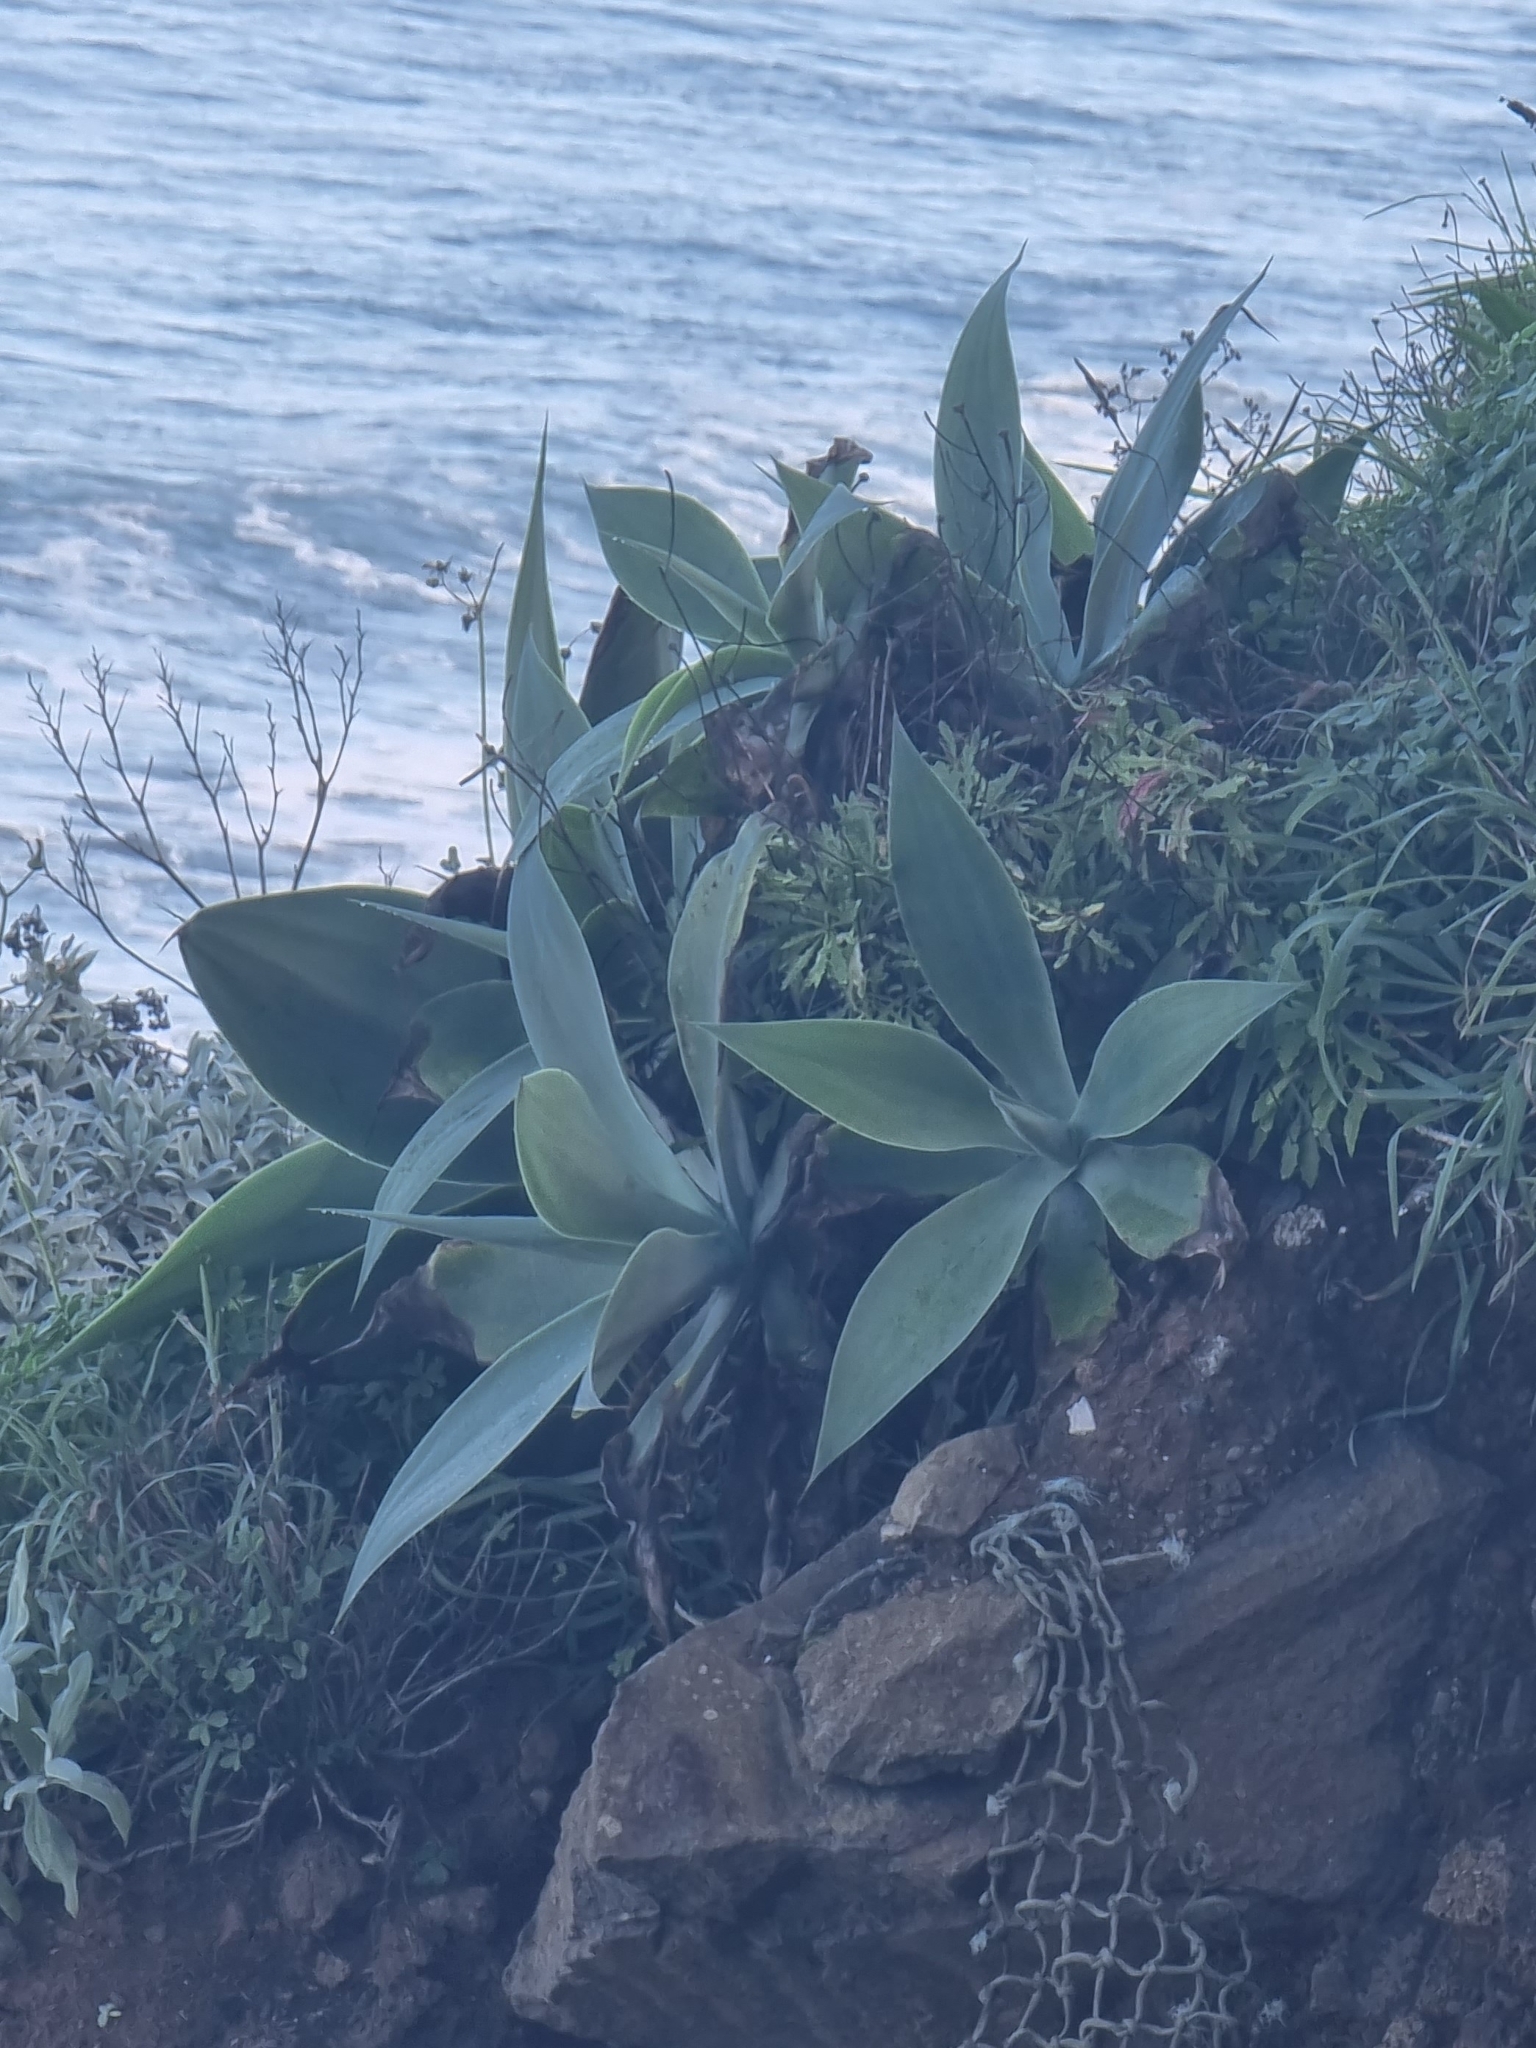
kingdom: Plantae
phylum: Tracheophyta
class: Liliopsida
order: Asparagales
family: Asparagaceae
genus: Agave
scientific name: Agave attenuata
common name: Fox tail agave
